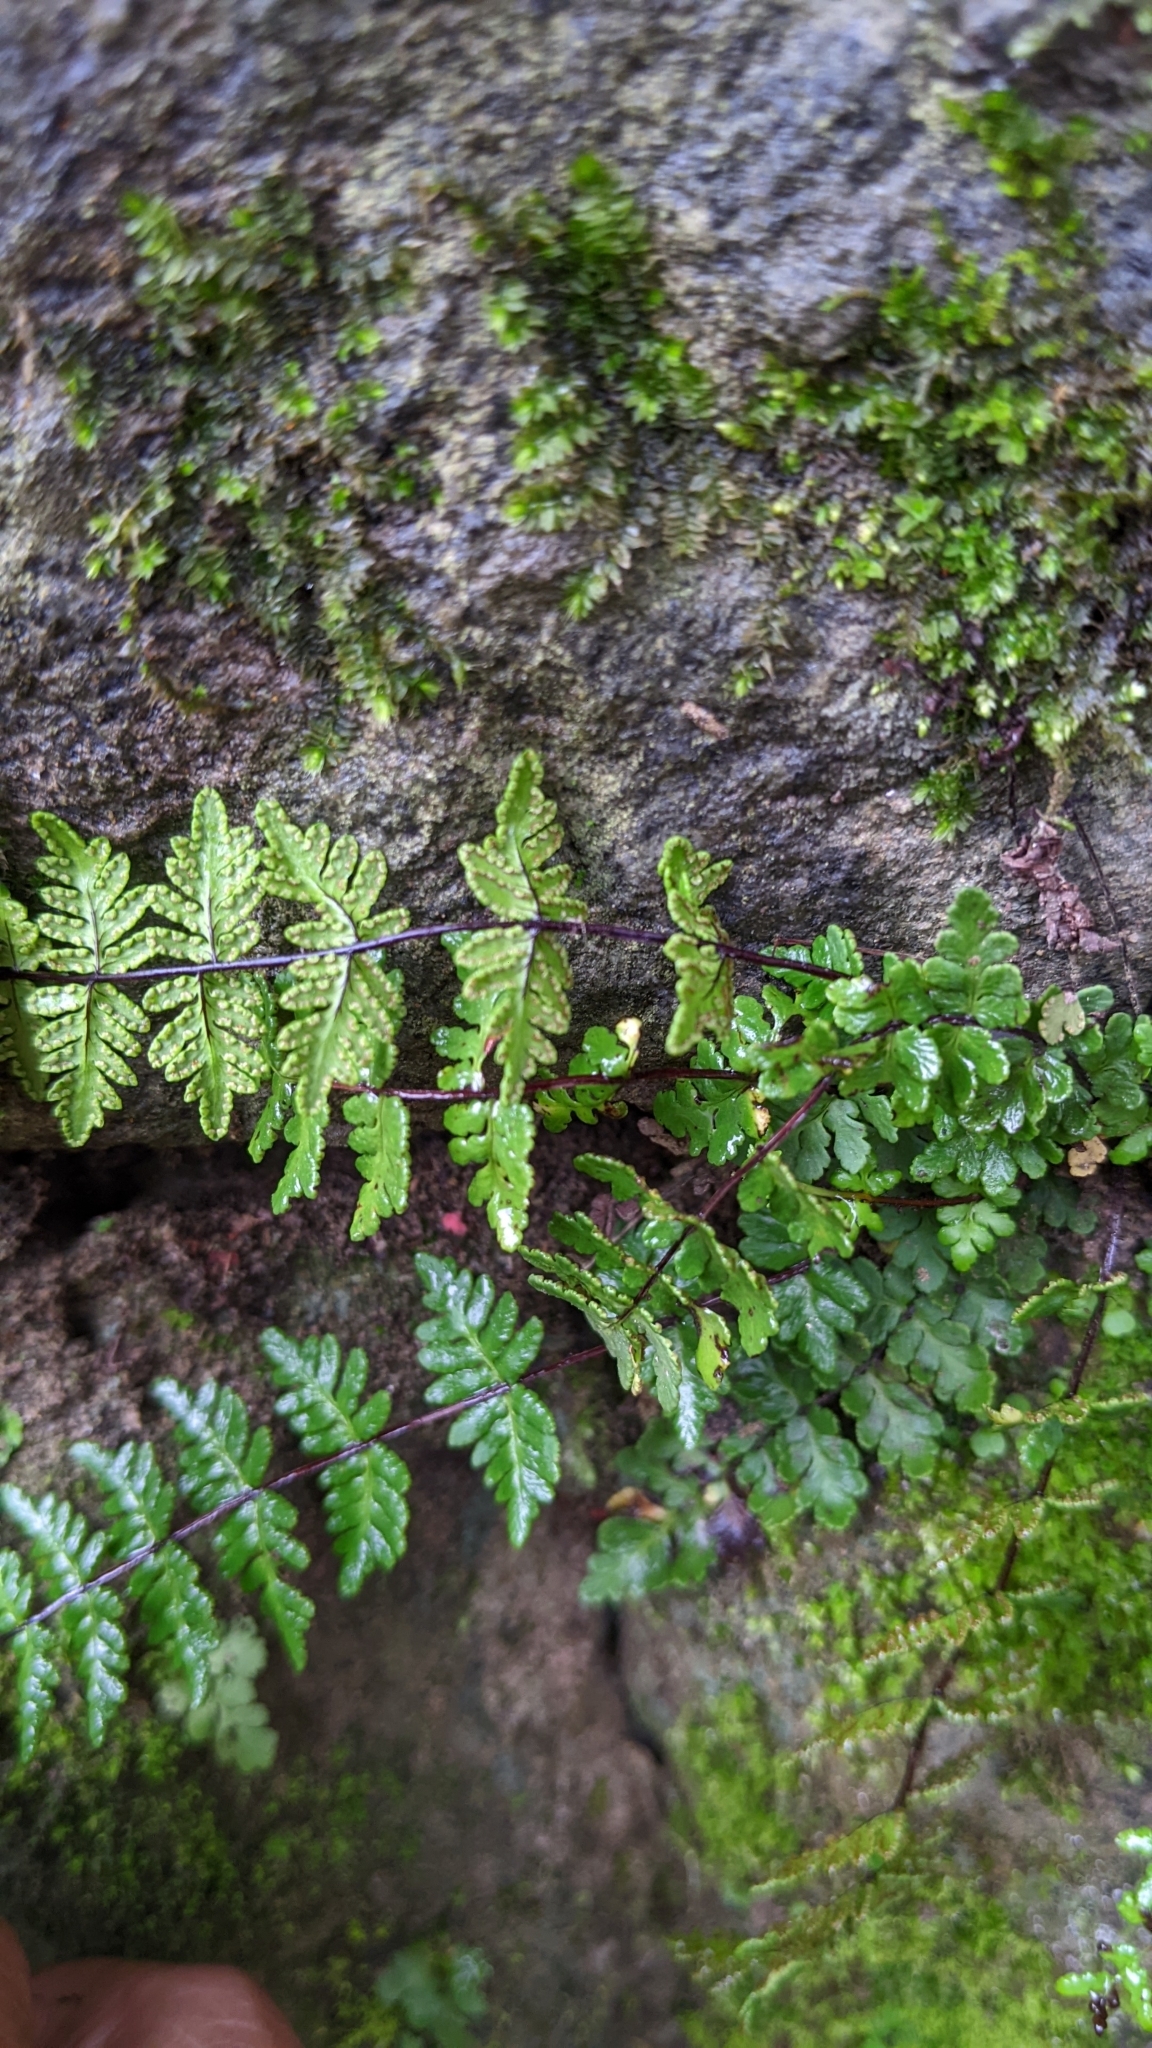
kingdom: Plantae
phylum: Tracheophyta
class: Polypodiopsida
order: Polypodiales
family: Pteridaceae
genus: Oeosporangium
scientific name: Oeosporangium chusanum
